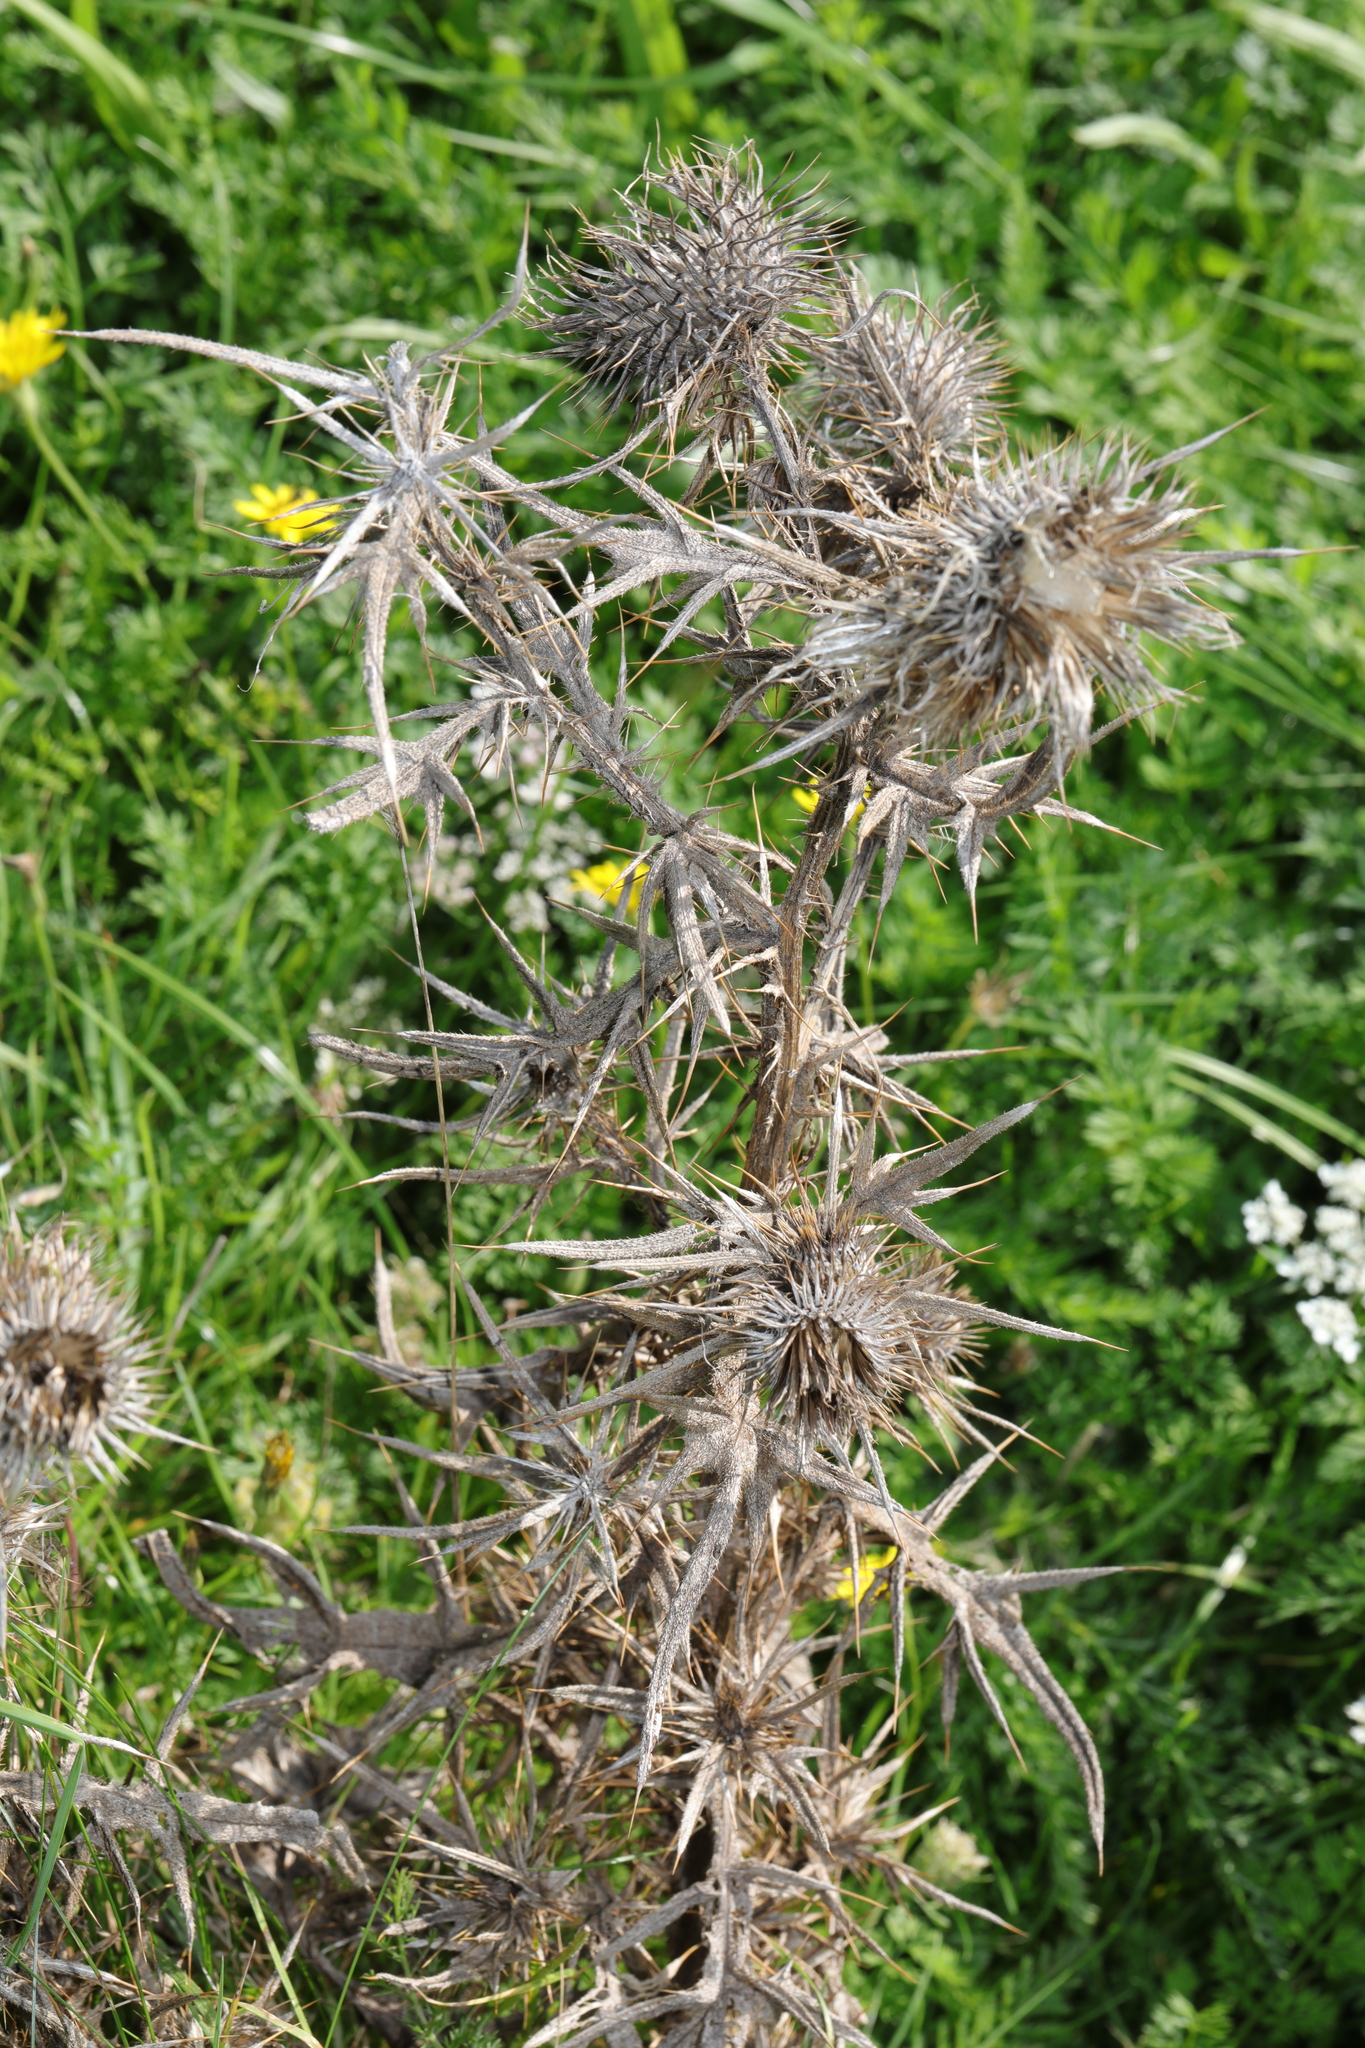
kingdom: Plantae
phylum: Tracheophyta
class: Magnoliopsida
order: Asterales
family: Asteraceae
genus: Cirsium
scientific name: Cirsium vulgare
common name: Bull thistle
